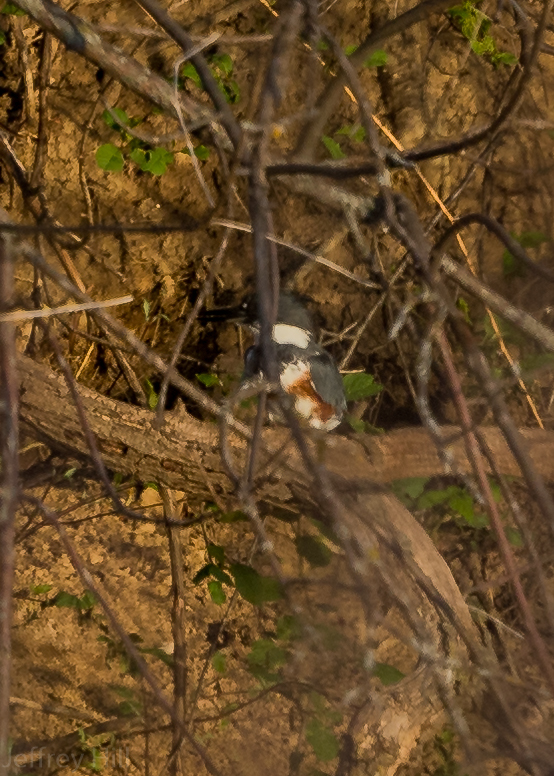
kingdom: Animalia
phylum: Chordata
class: Aves
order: Coraciiformes
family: Alcedinidae
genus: Megaceryle
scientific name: Megaceryle alcyon
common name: Belted kingfisher
